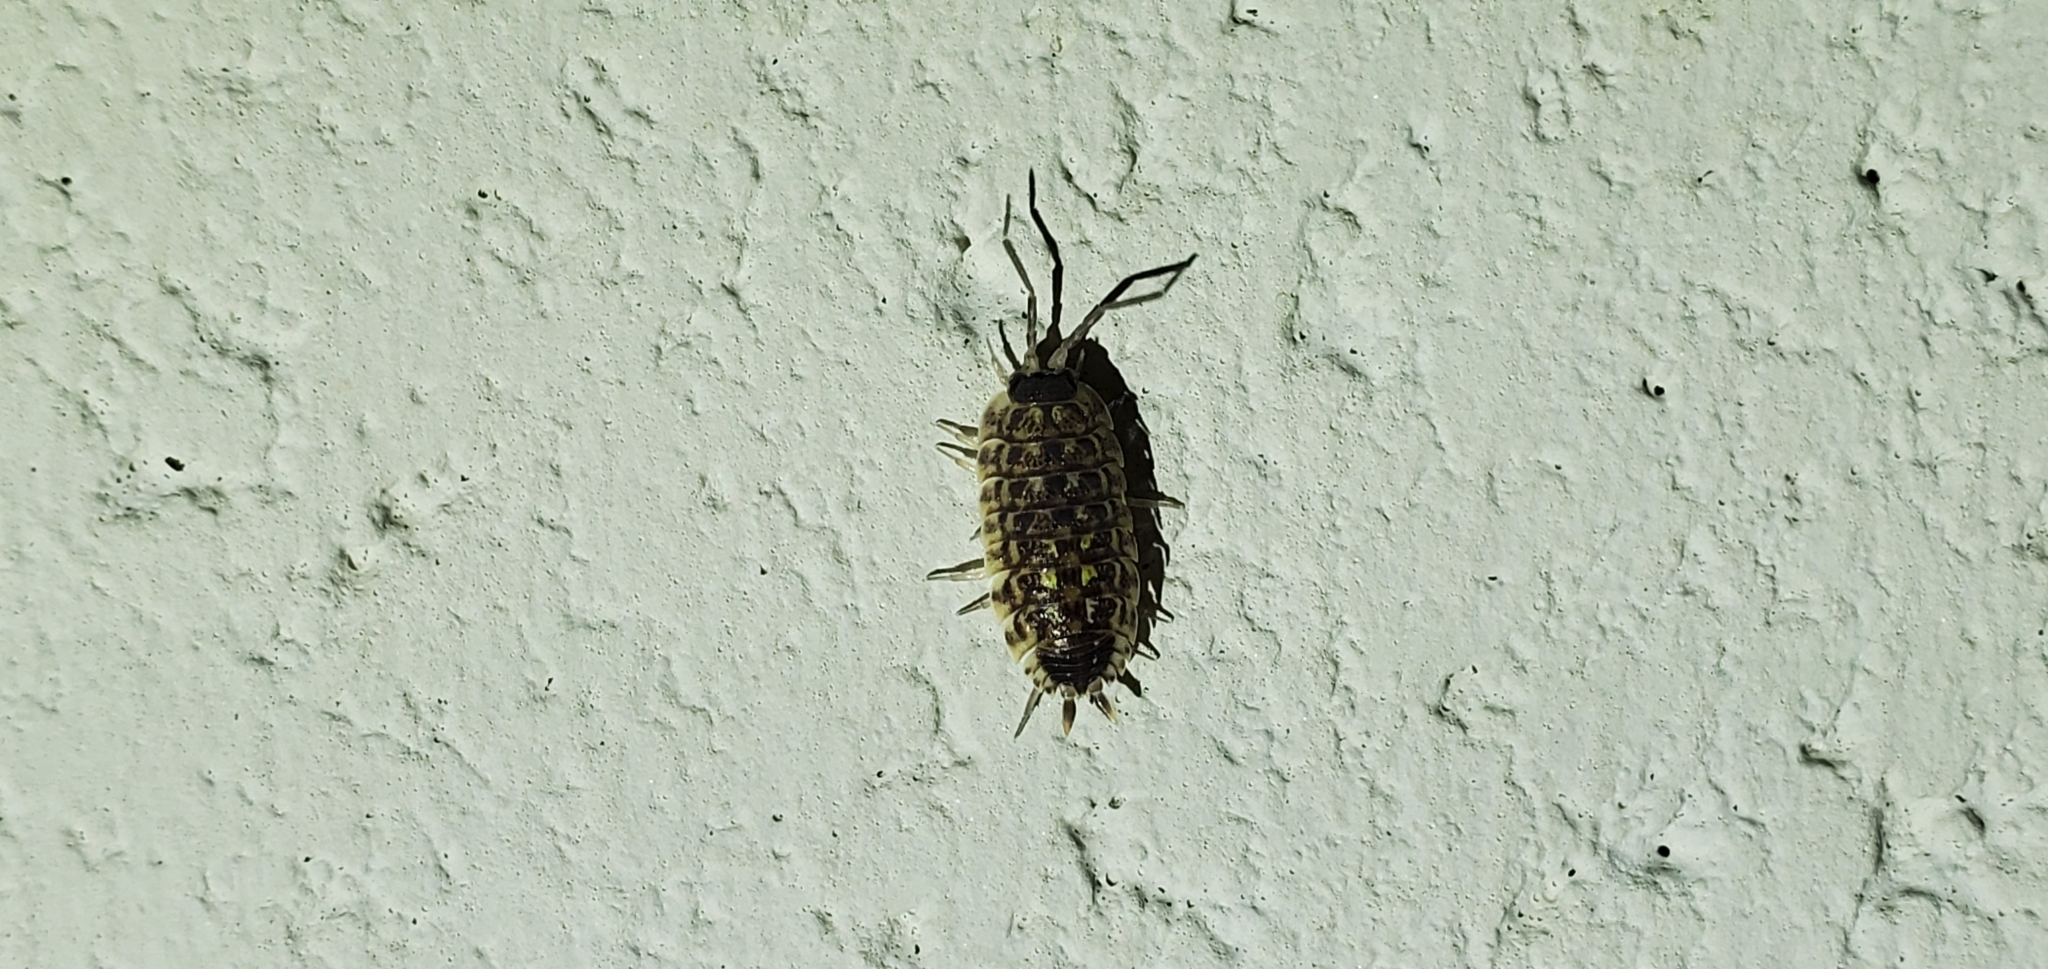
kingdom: Animalia
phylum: Arthropoda
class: Malacostraca
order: Isopoda
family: Porcellionidae
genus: Porcellio
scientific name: Porcellio spinicornis
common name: Painted woodlouse
